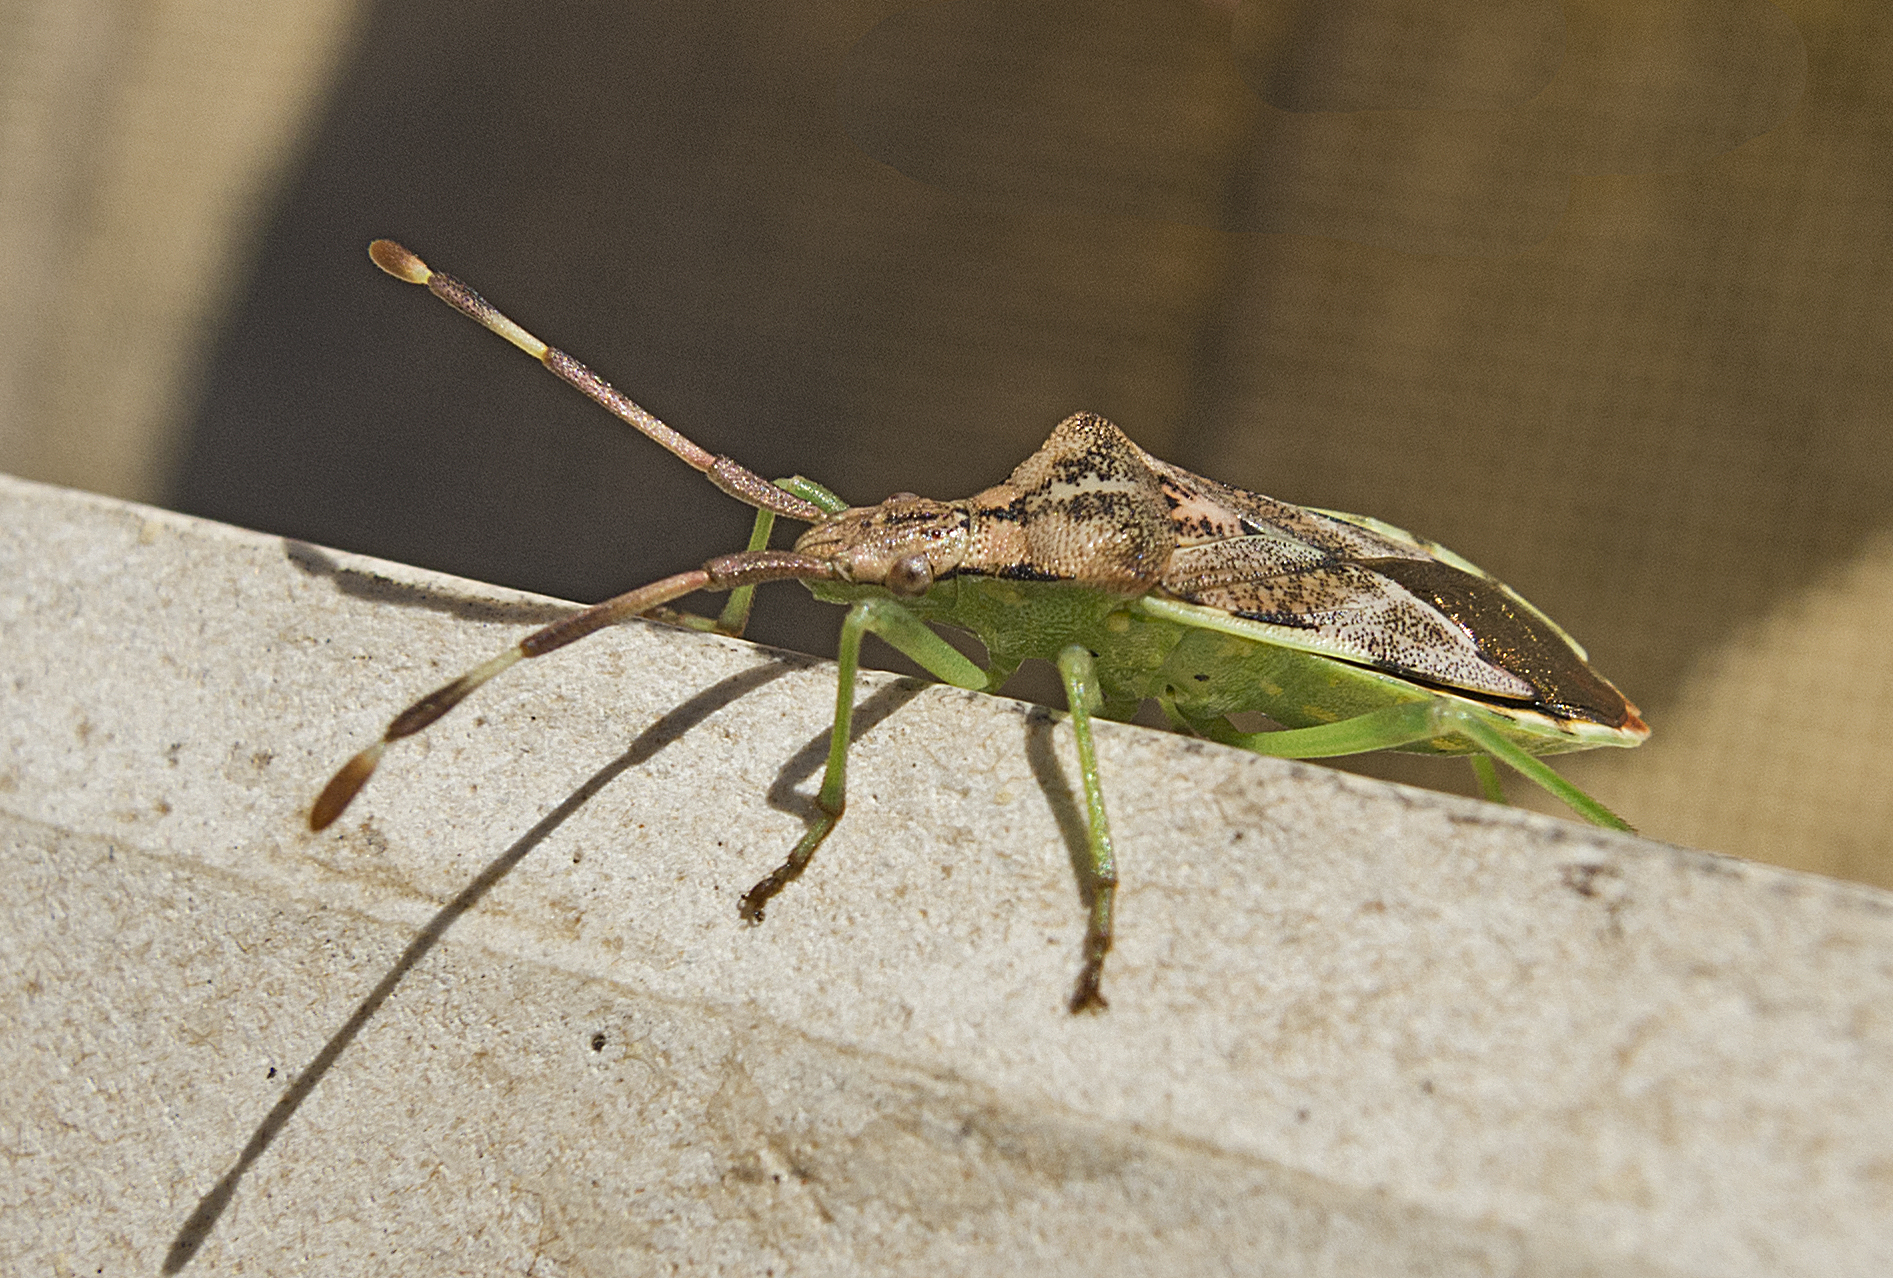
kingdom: Animalia
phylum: Arthropoda
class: Insecta
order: Hemiptera
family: Coreidae
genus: Gonocerus
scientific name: Gonocerus juniperi
